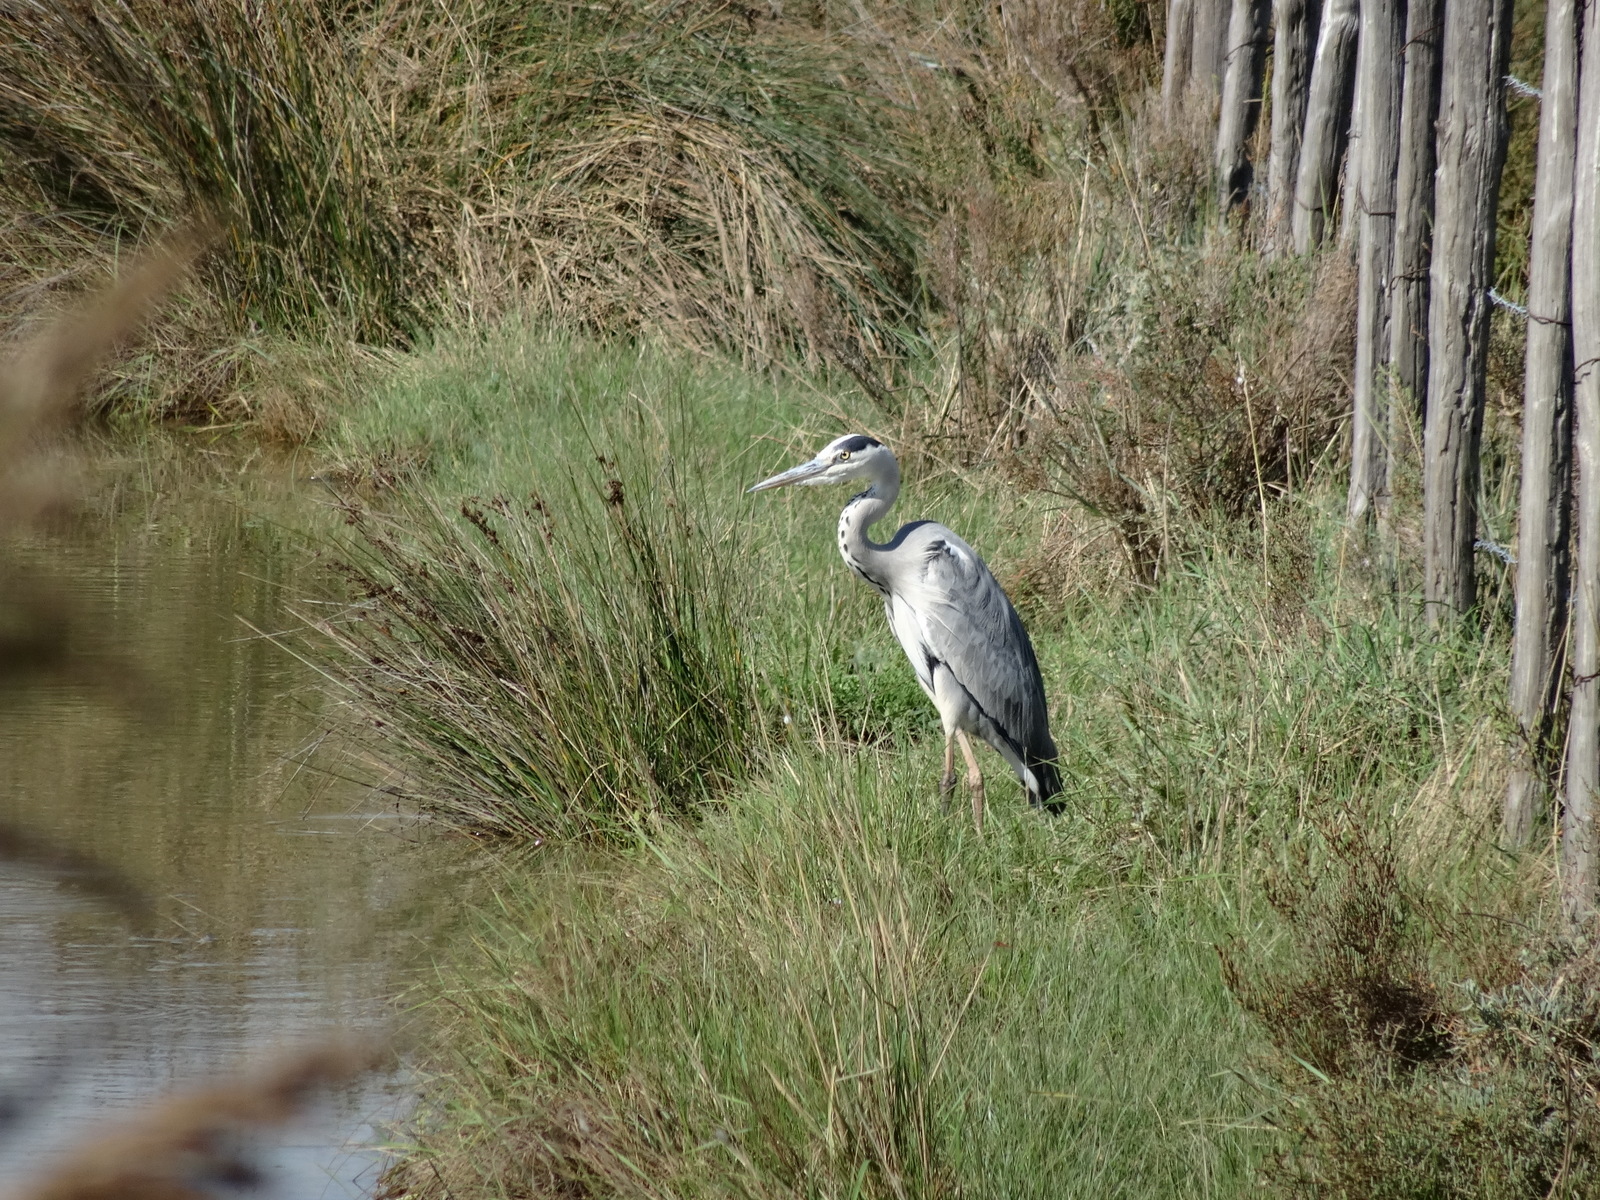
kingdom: Animalia
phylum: Chordata
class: Aves
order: Pelecaniformes
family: Ardeidae
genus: Ardea
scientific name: Ardea cinerea
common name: Grey heron
